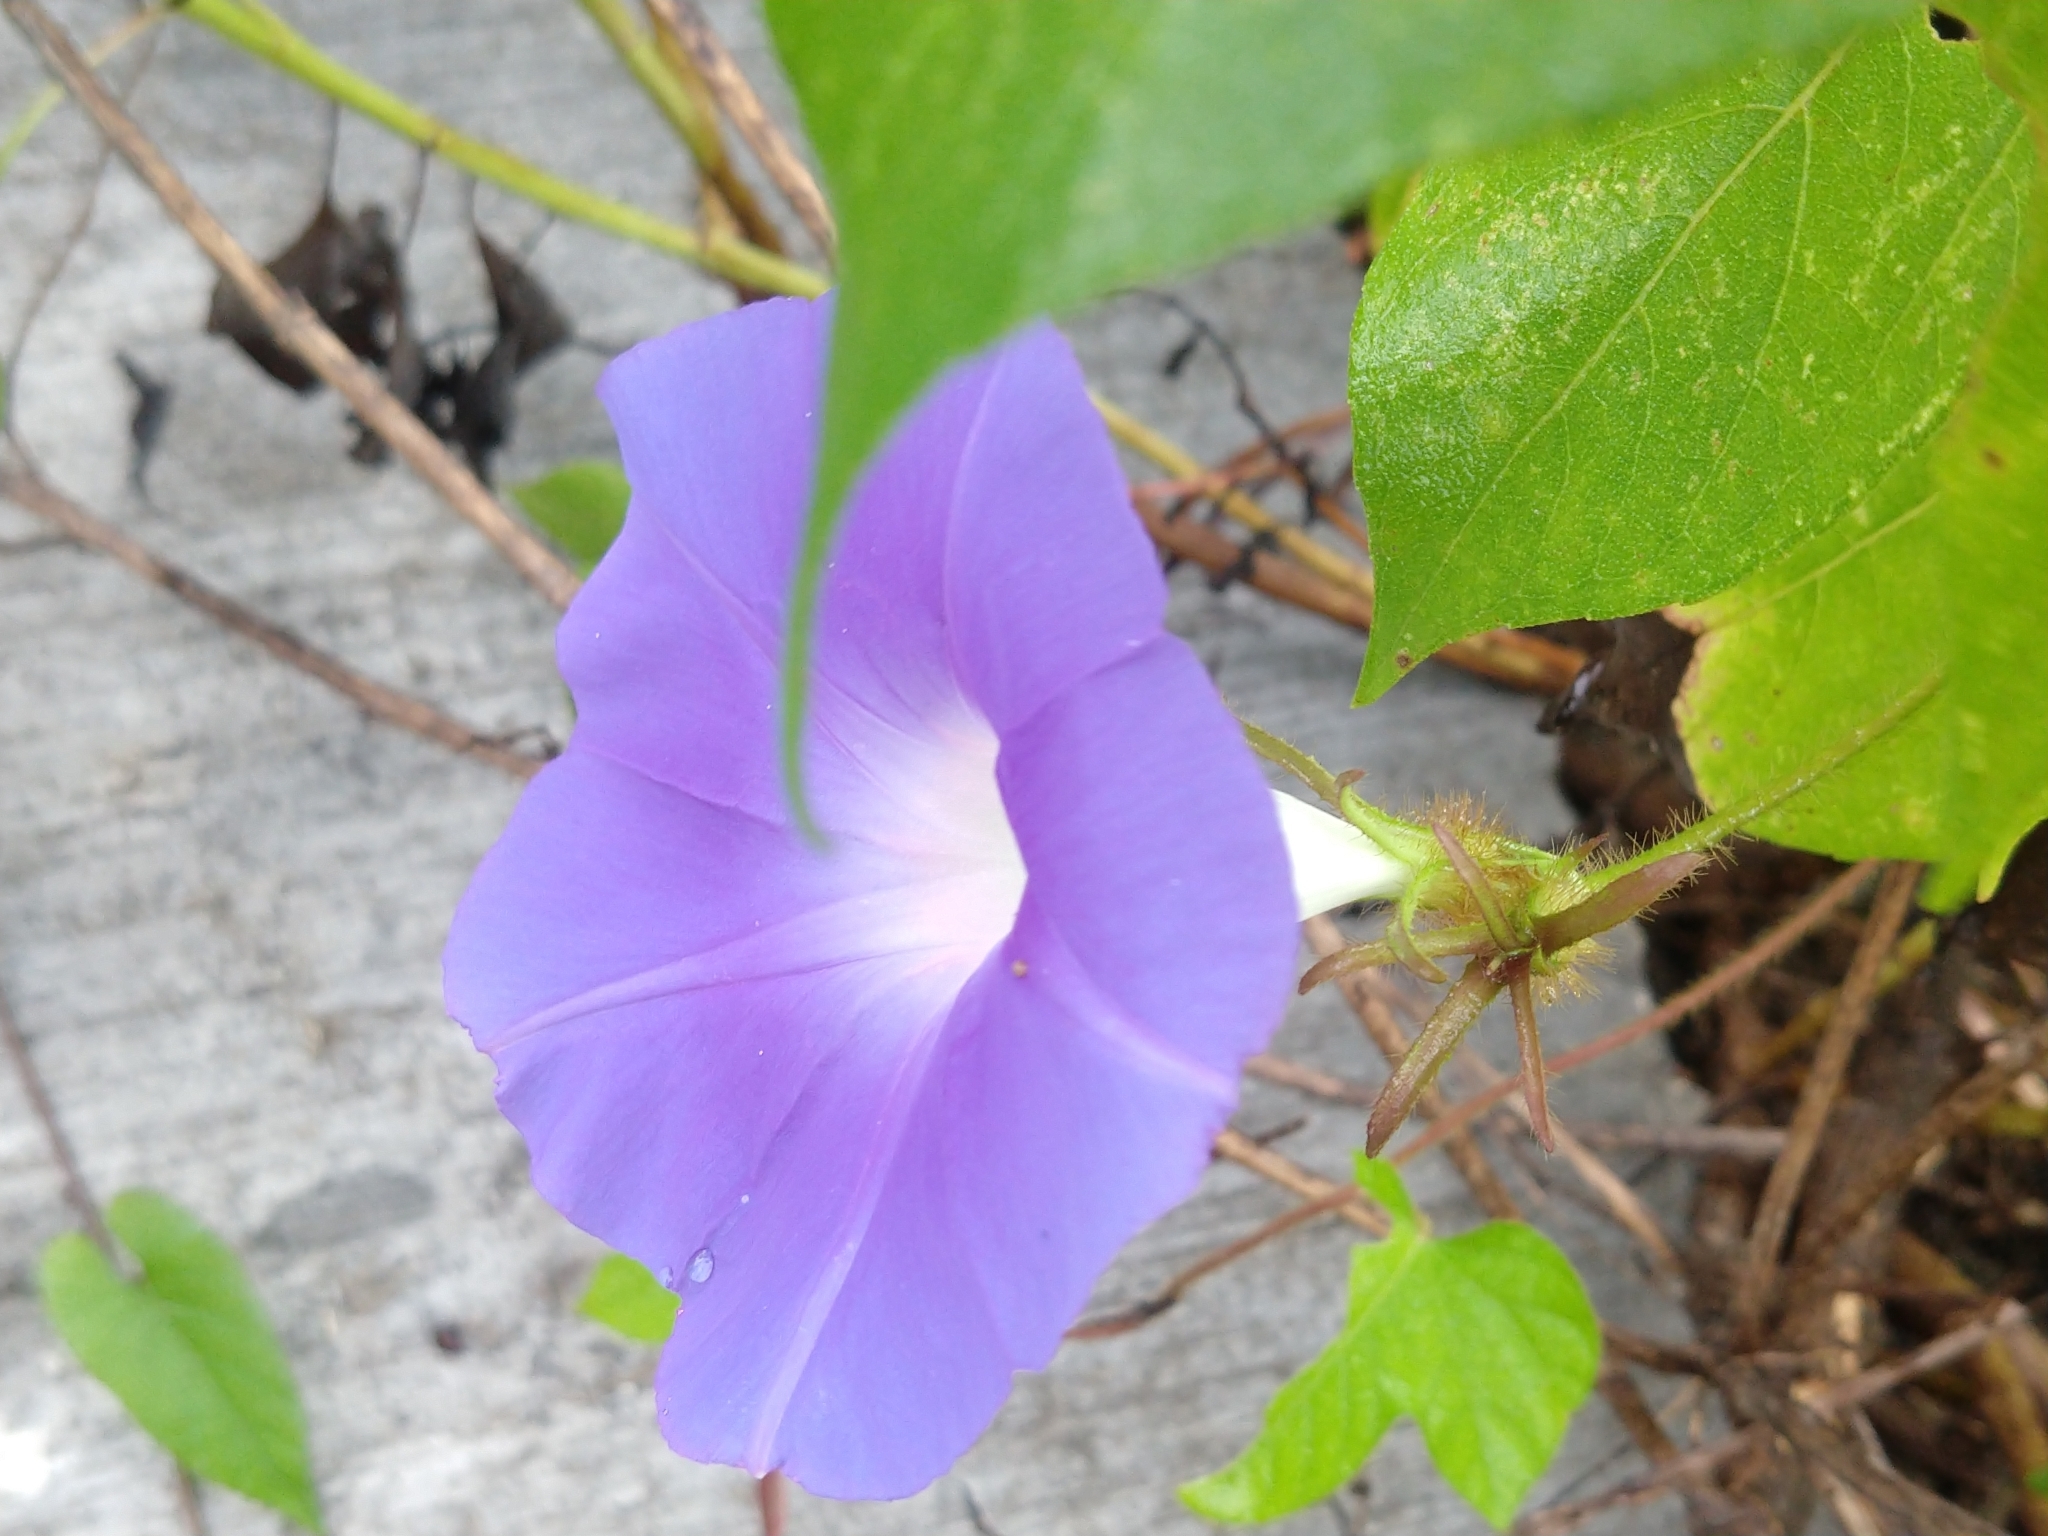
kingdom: Plantae
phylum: Tracheophyta
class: Magnoliopsida
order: Solanales
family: Convolvulaceae
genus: Ipomoea
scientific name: Ipomoea hederacea
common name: Ivy-leaved morning-glory
